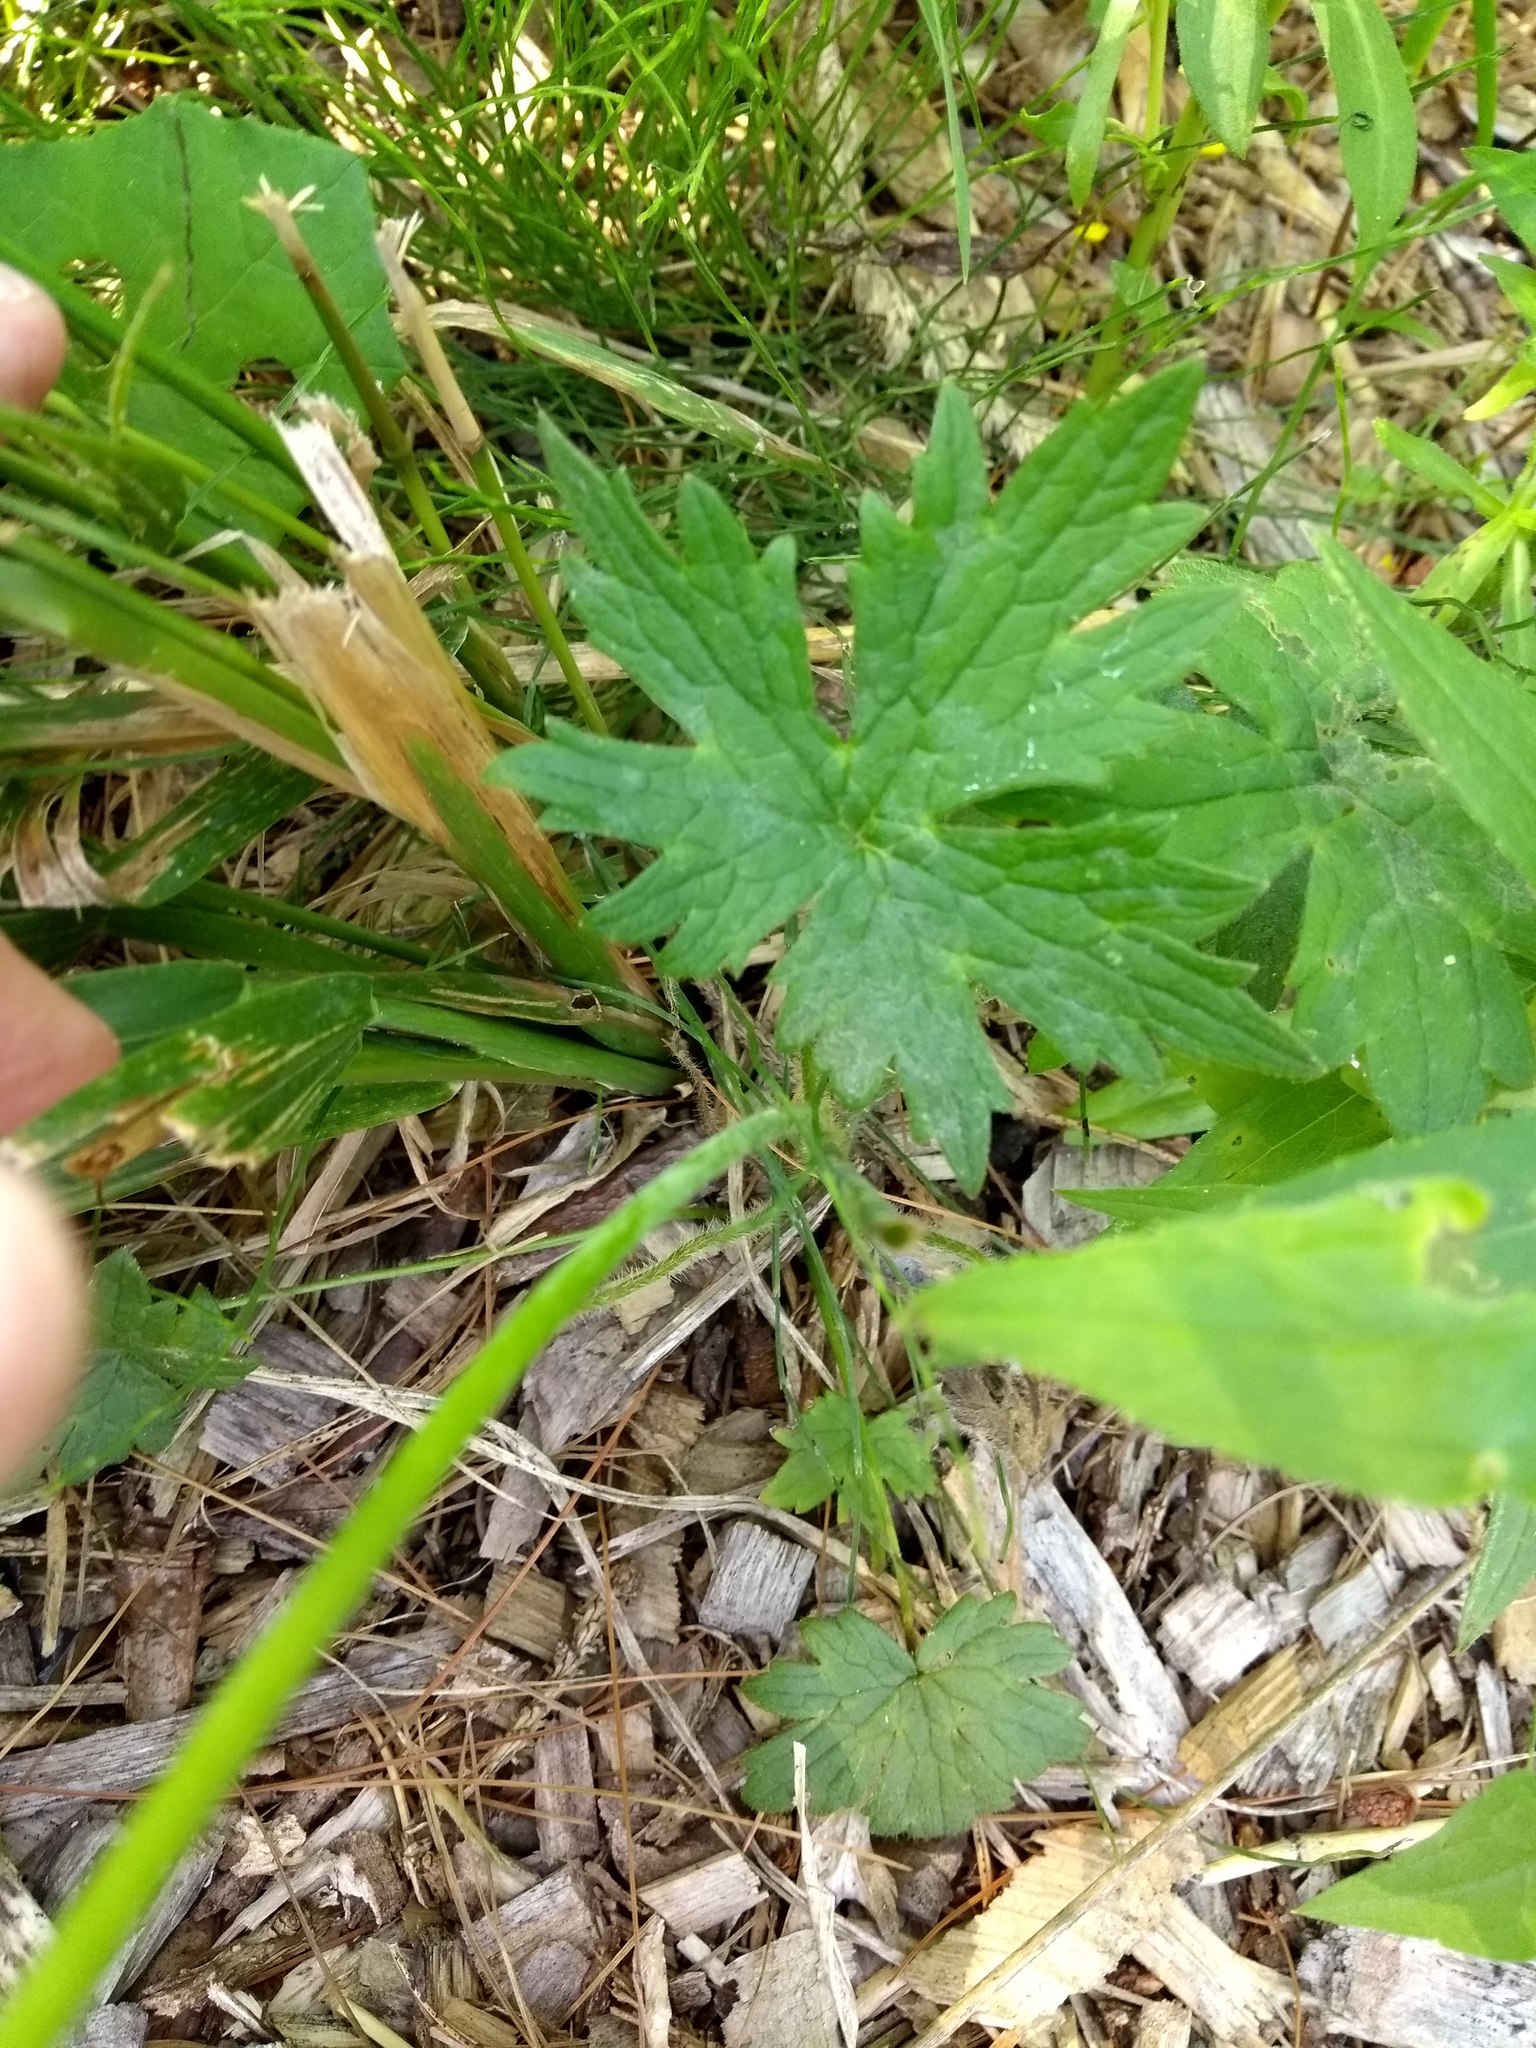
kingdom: Plantae
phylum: Tracheophyta
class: Magnoliopsida
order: Ranunculales
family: Ranunculaceae
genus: Ranunculus
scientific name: Ranunculus acris
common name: Meadow buttercup
